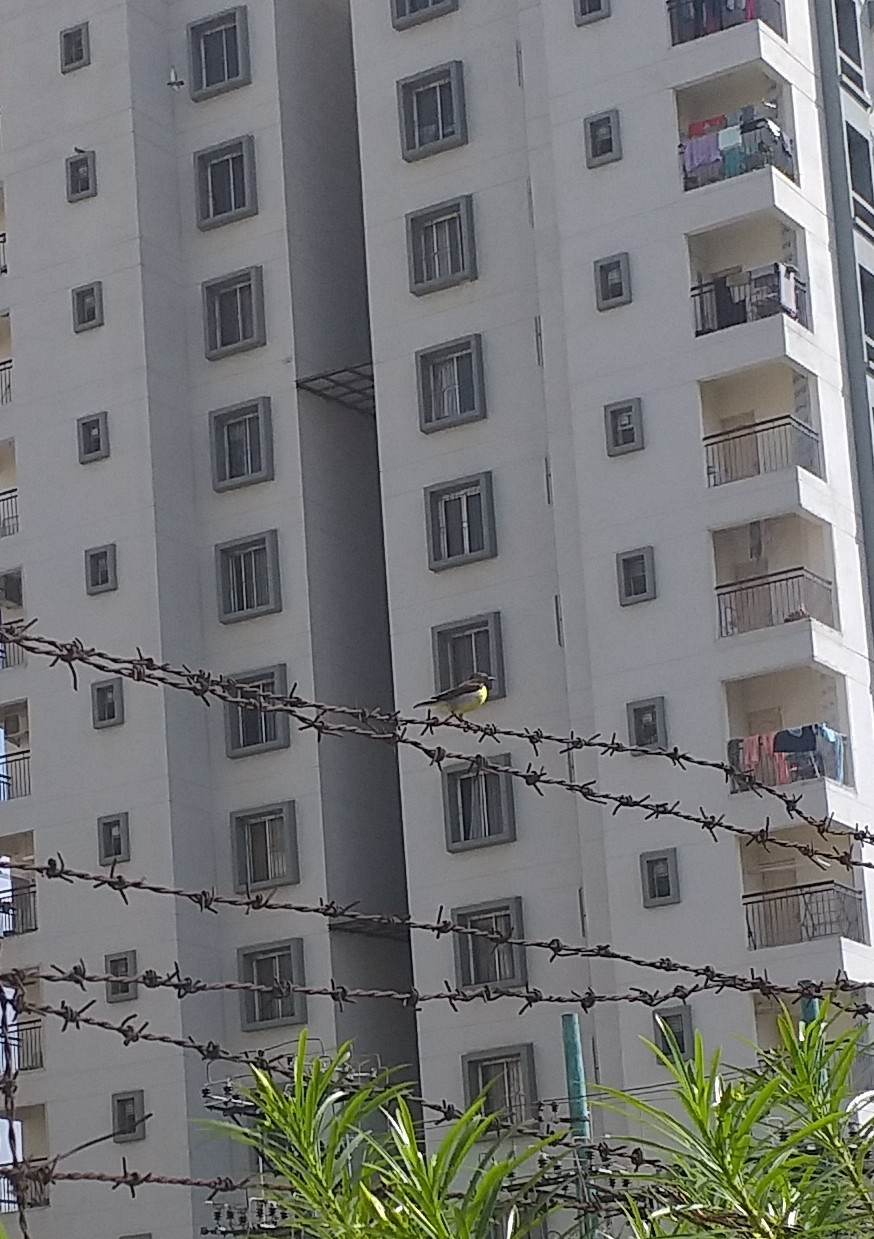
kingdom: Animalia
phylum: Chordata
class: Aves
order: Passeriformes
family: Nectariniidae
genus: Leptocoma
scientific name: Leptocoma zeylonica
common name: Purple-rumped sunbird
